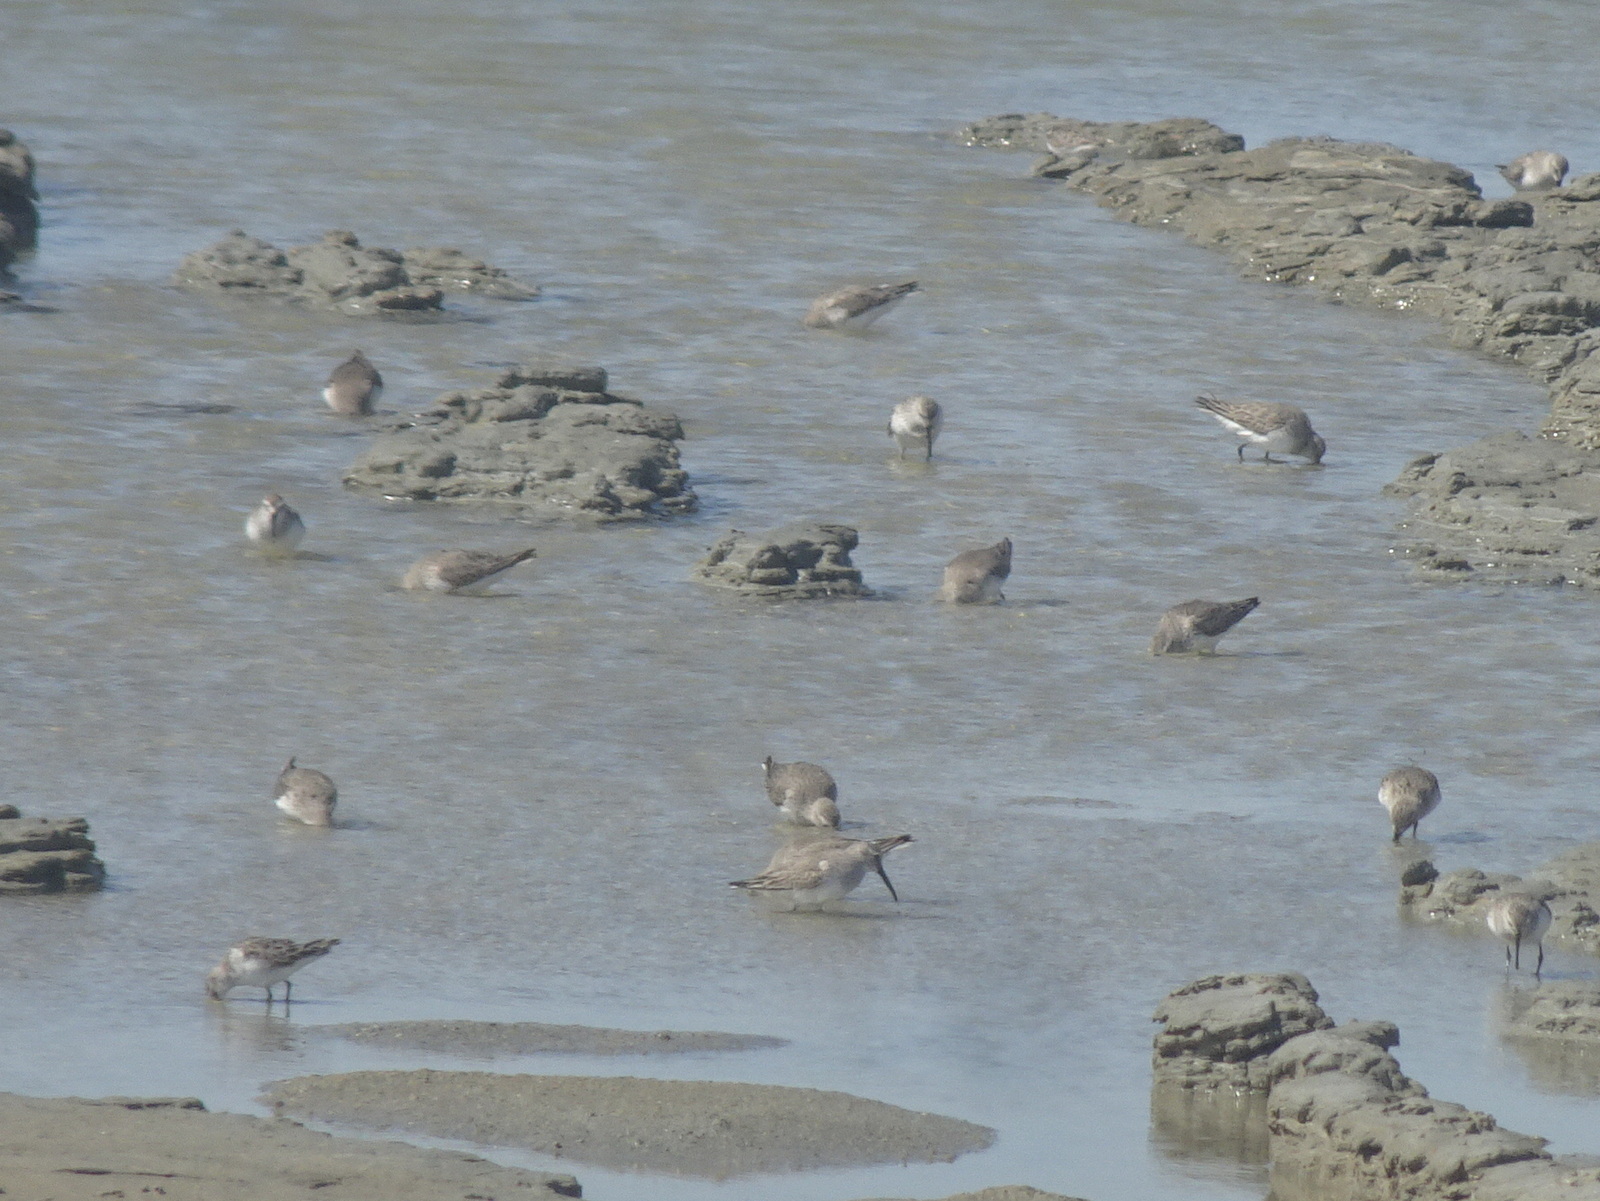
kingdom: Animalia
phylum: Chordata
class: Aves
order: Charadriiformes
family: Scolopacidae
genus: Calidris
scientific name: Calidris alpina
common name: Dunlin
